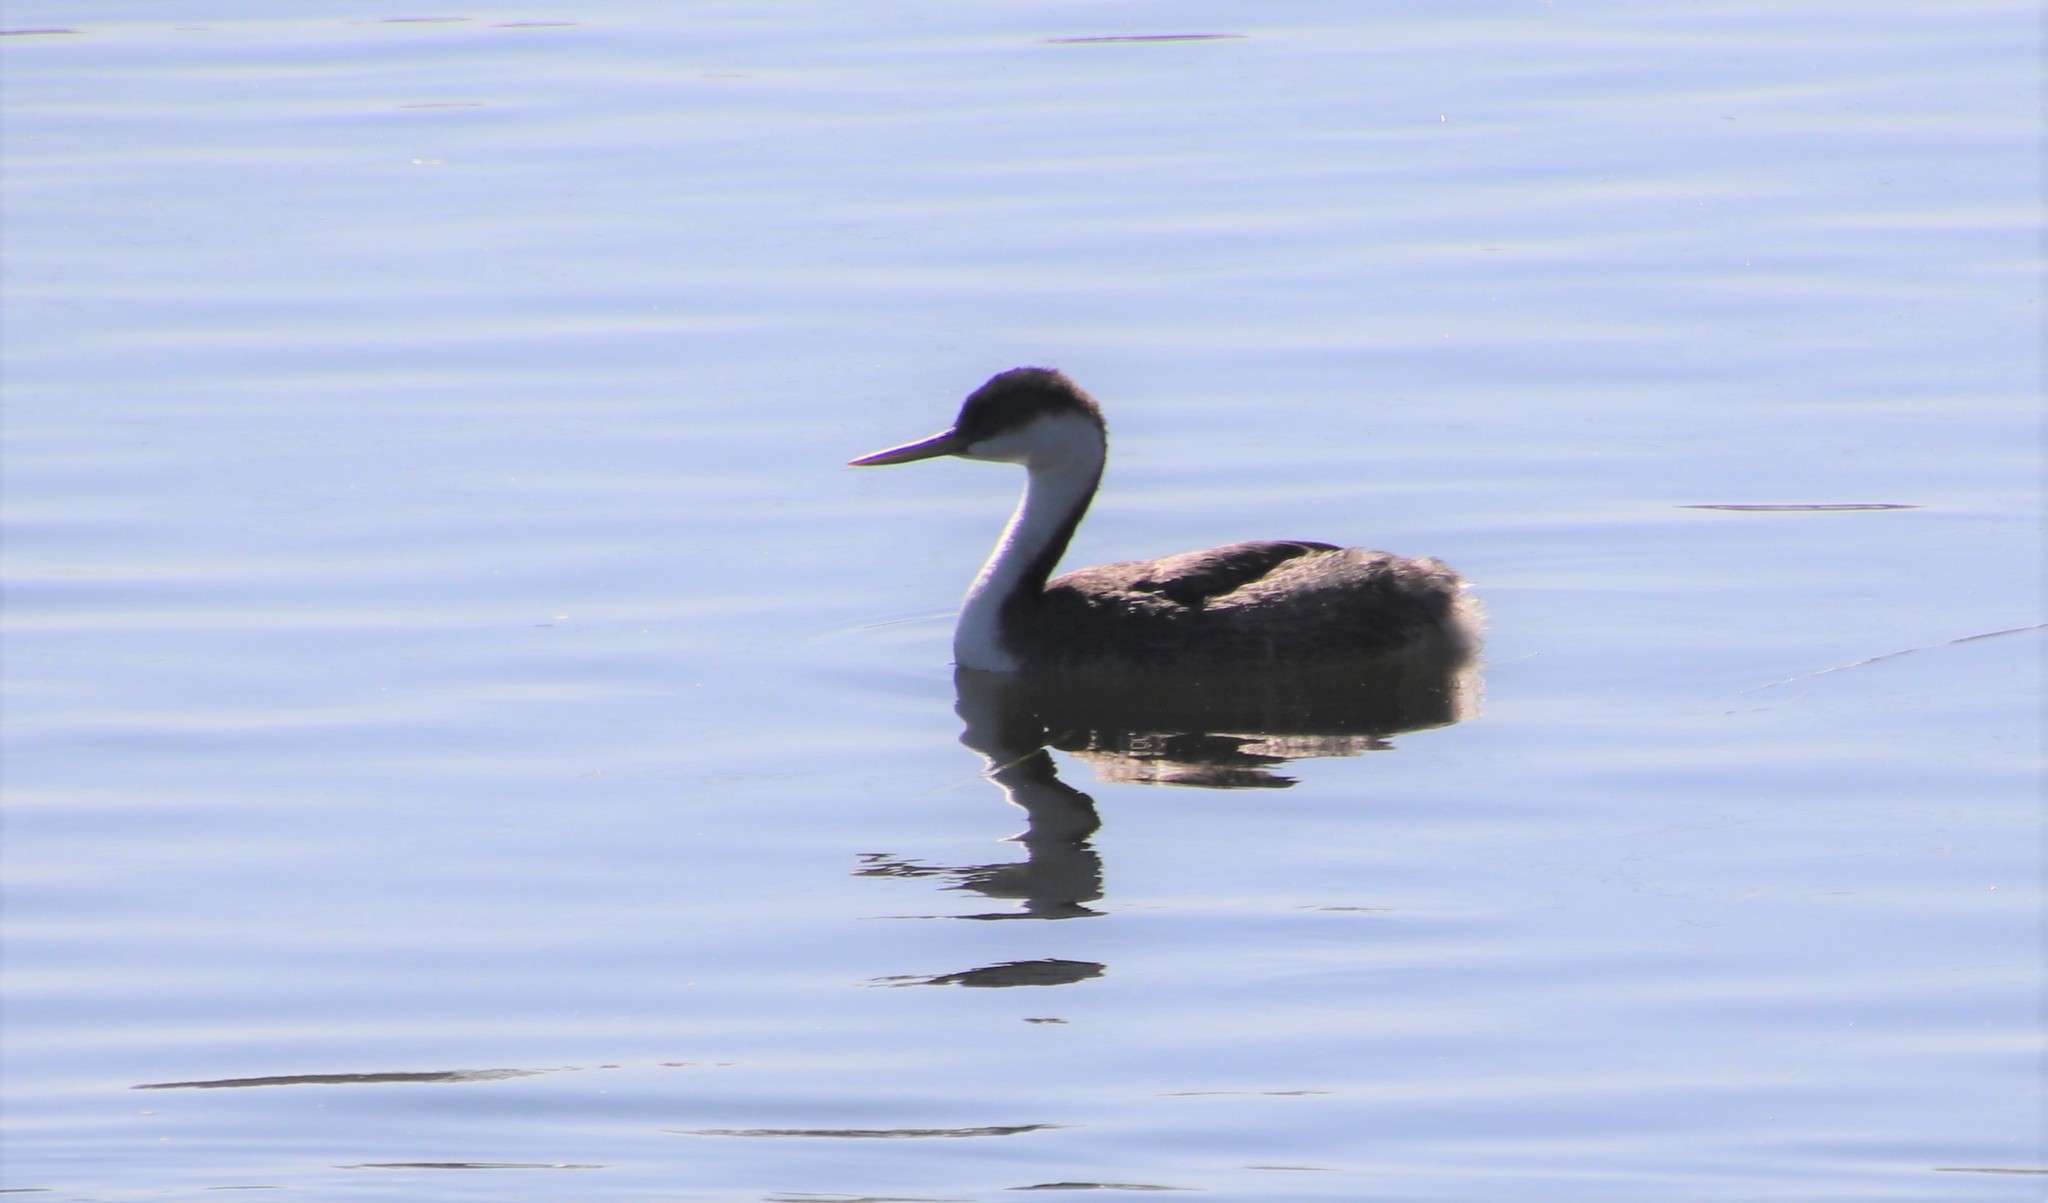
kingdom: Animalia
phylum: Chordata
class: Aves
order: Podicipediformes
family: Podicipedidae
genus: Aechmophorus
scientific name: Aechmophorus occidentalis
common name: Western grebe
